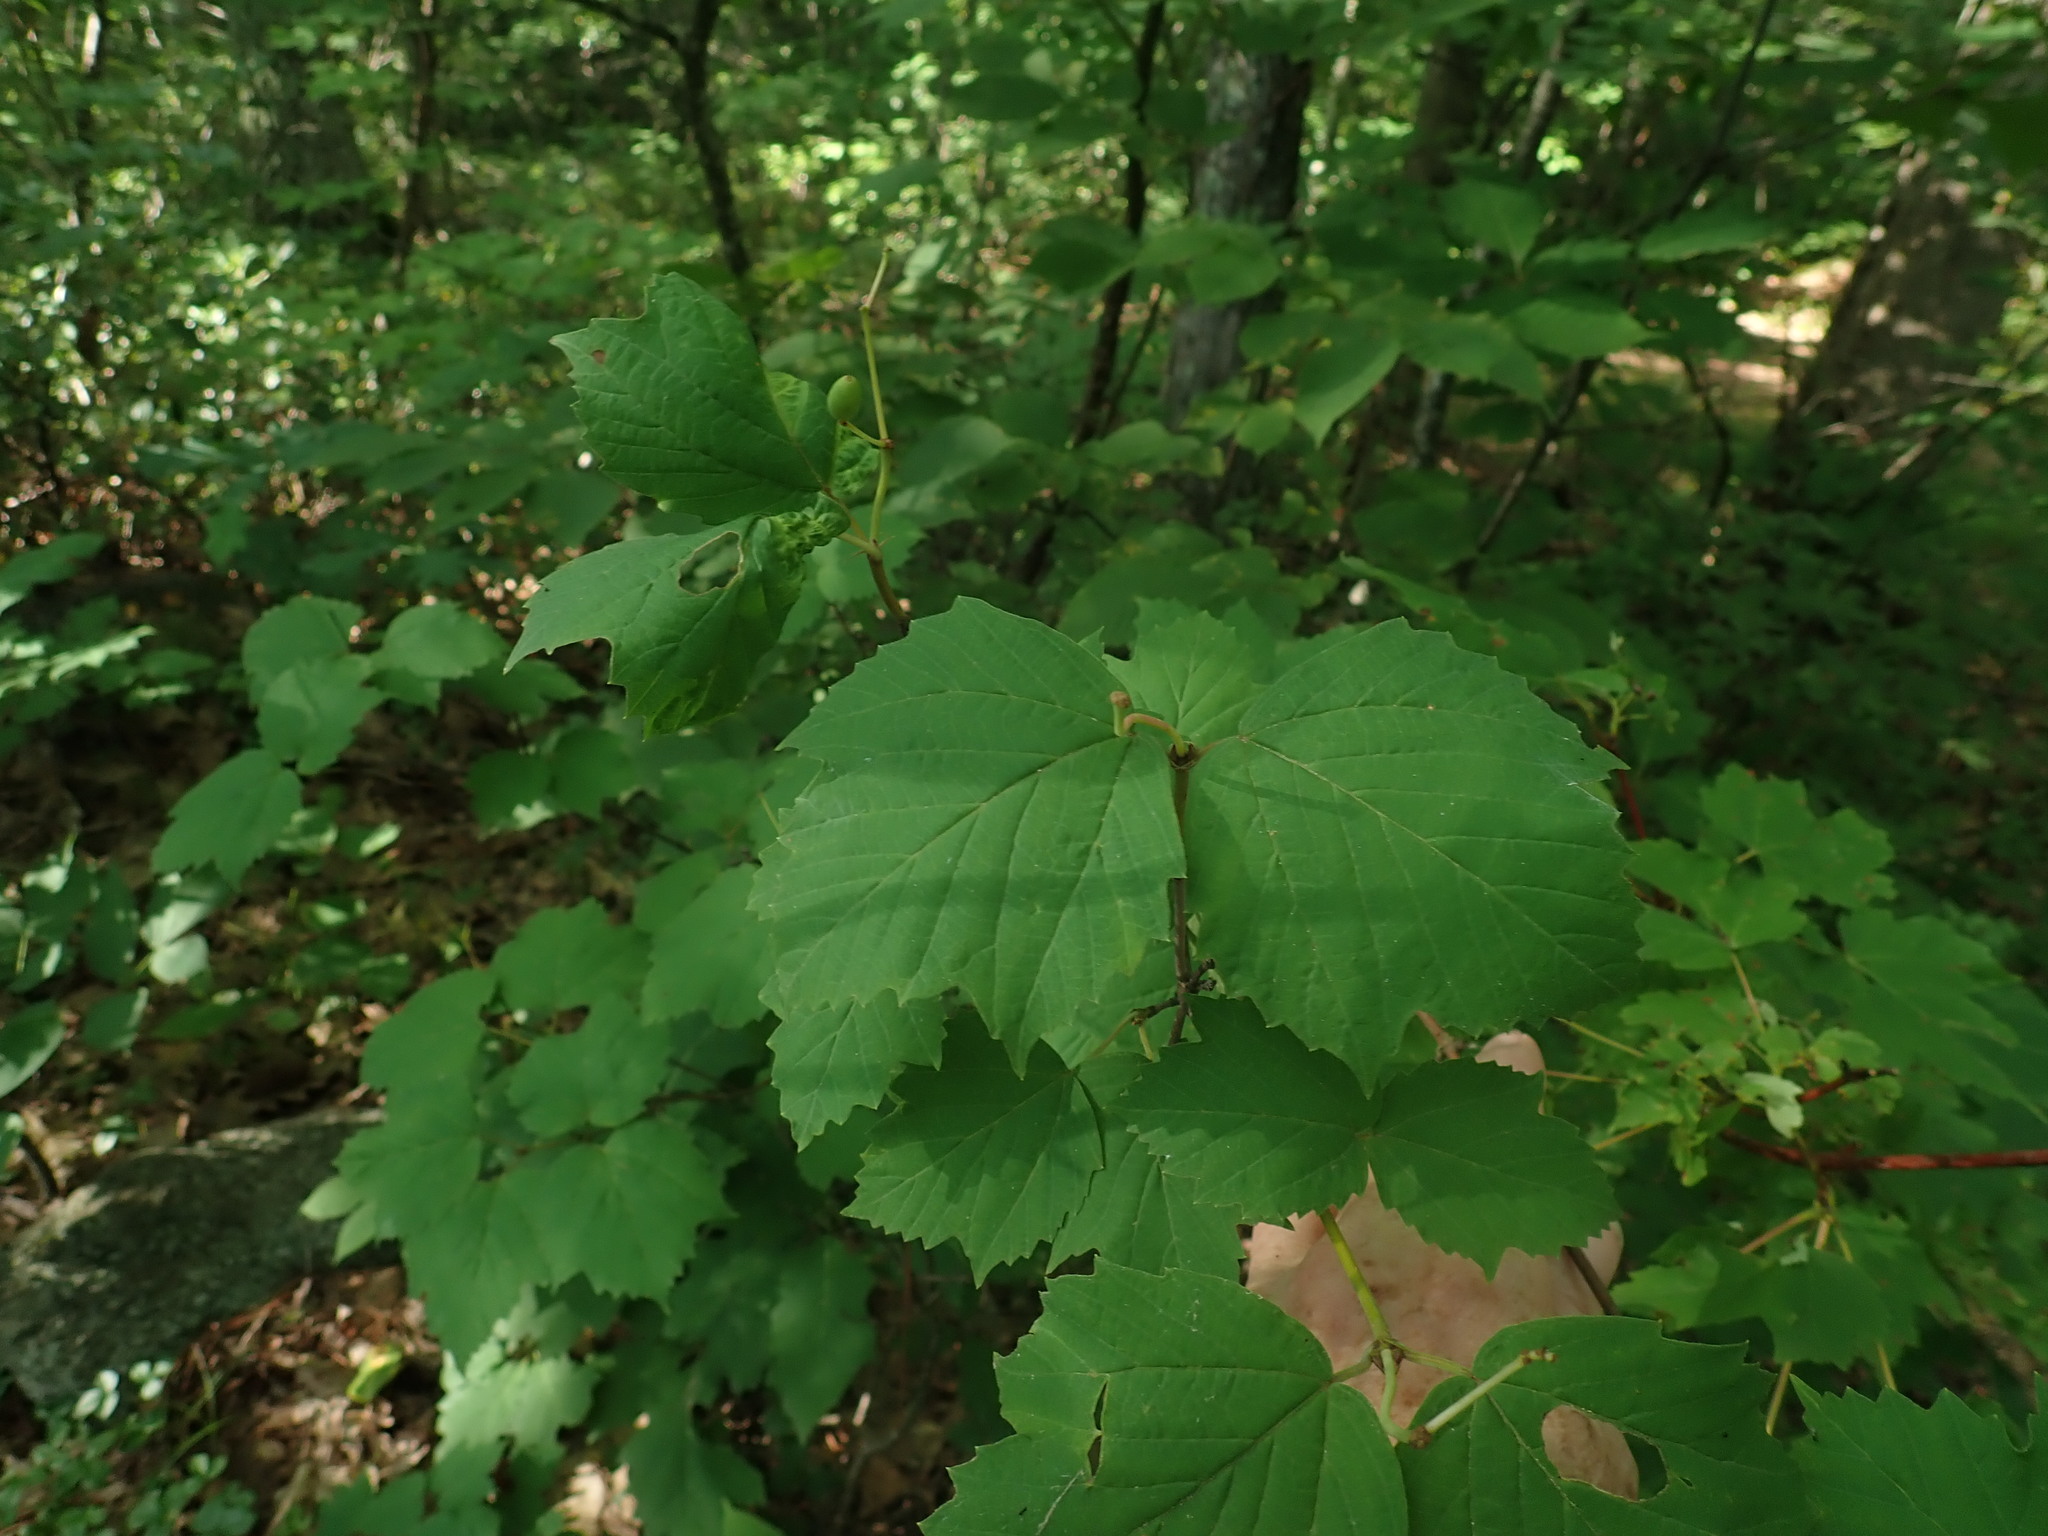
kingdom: Plantae
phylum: Tracheophyta
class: Magnoliopsida
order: Dipsacales
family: Viburnaceae
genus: Viburnum
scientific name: Viburnum acerifolium
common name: Dockmackie
